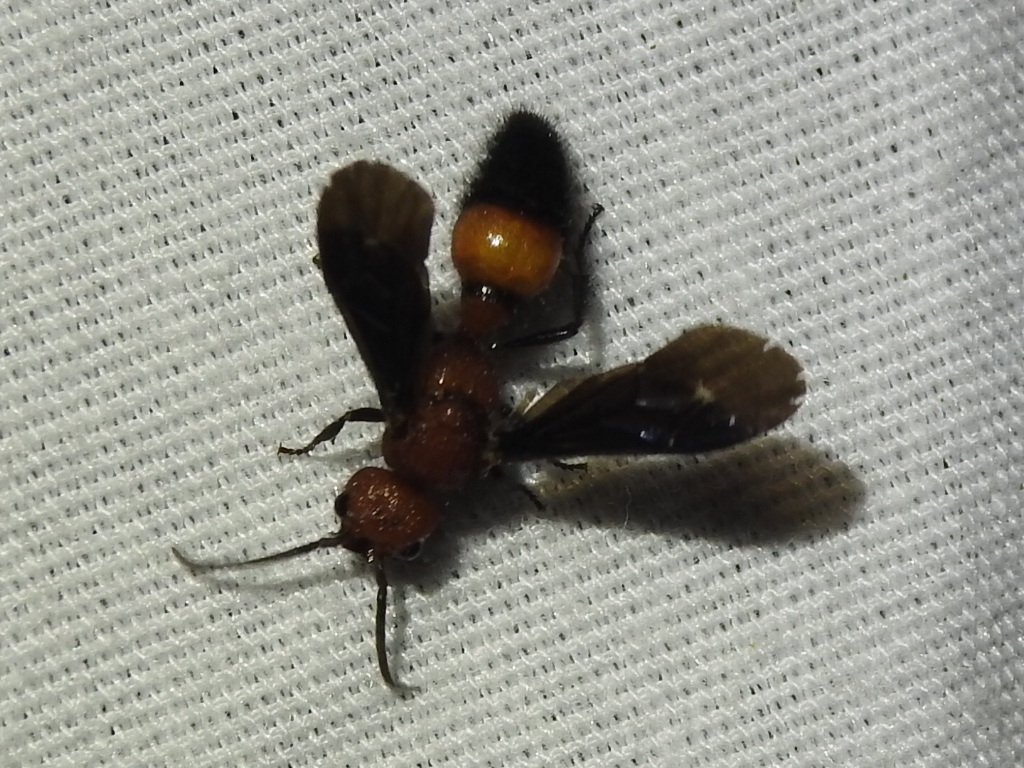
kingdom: Animalia
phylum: Arthropoda
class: Insecta
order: Hymenoptera
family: Mutillidae
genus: Sphaeropthalma
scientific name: Sphaeropthalma
